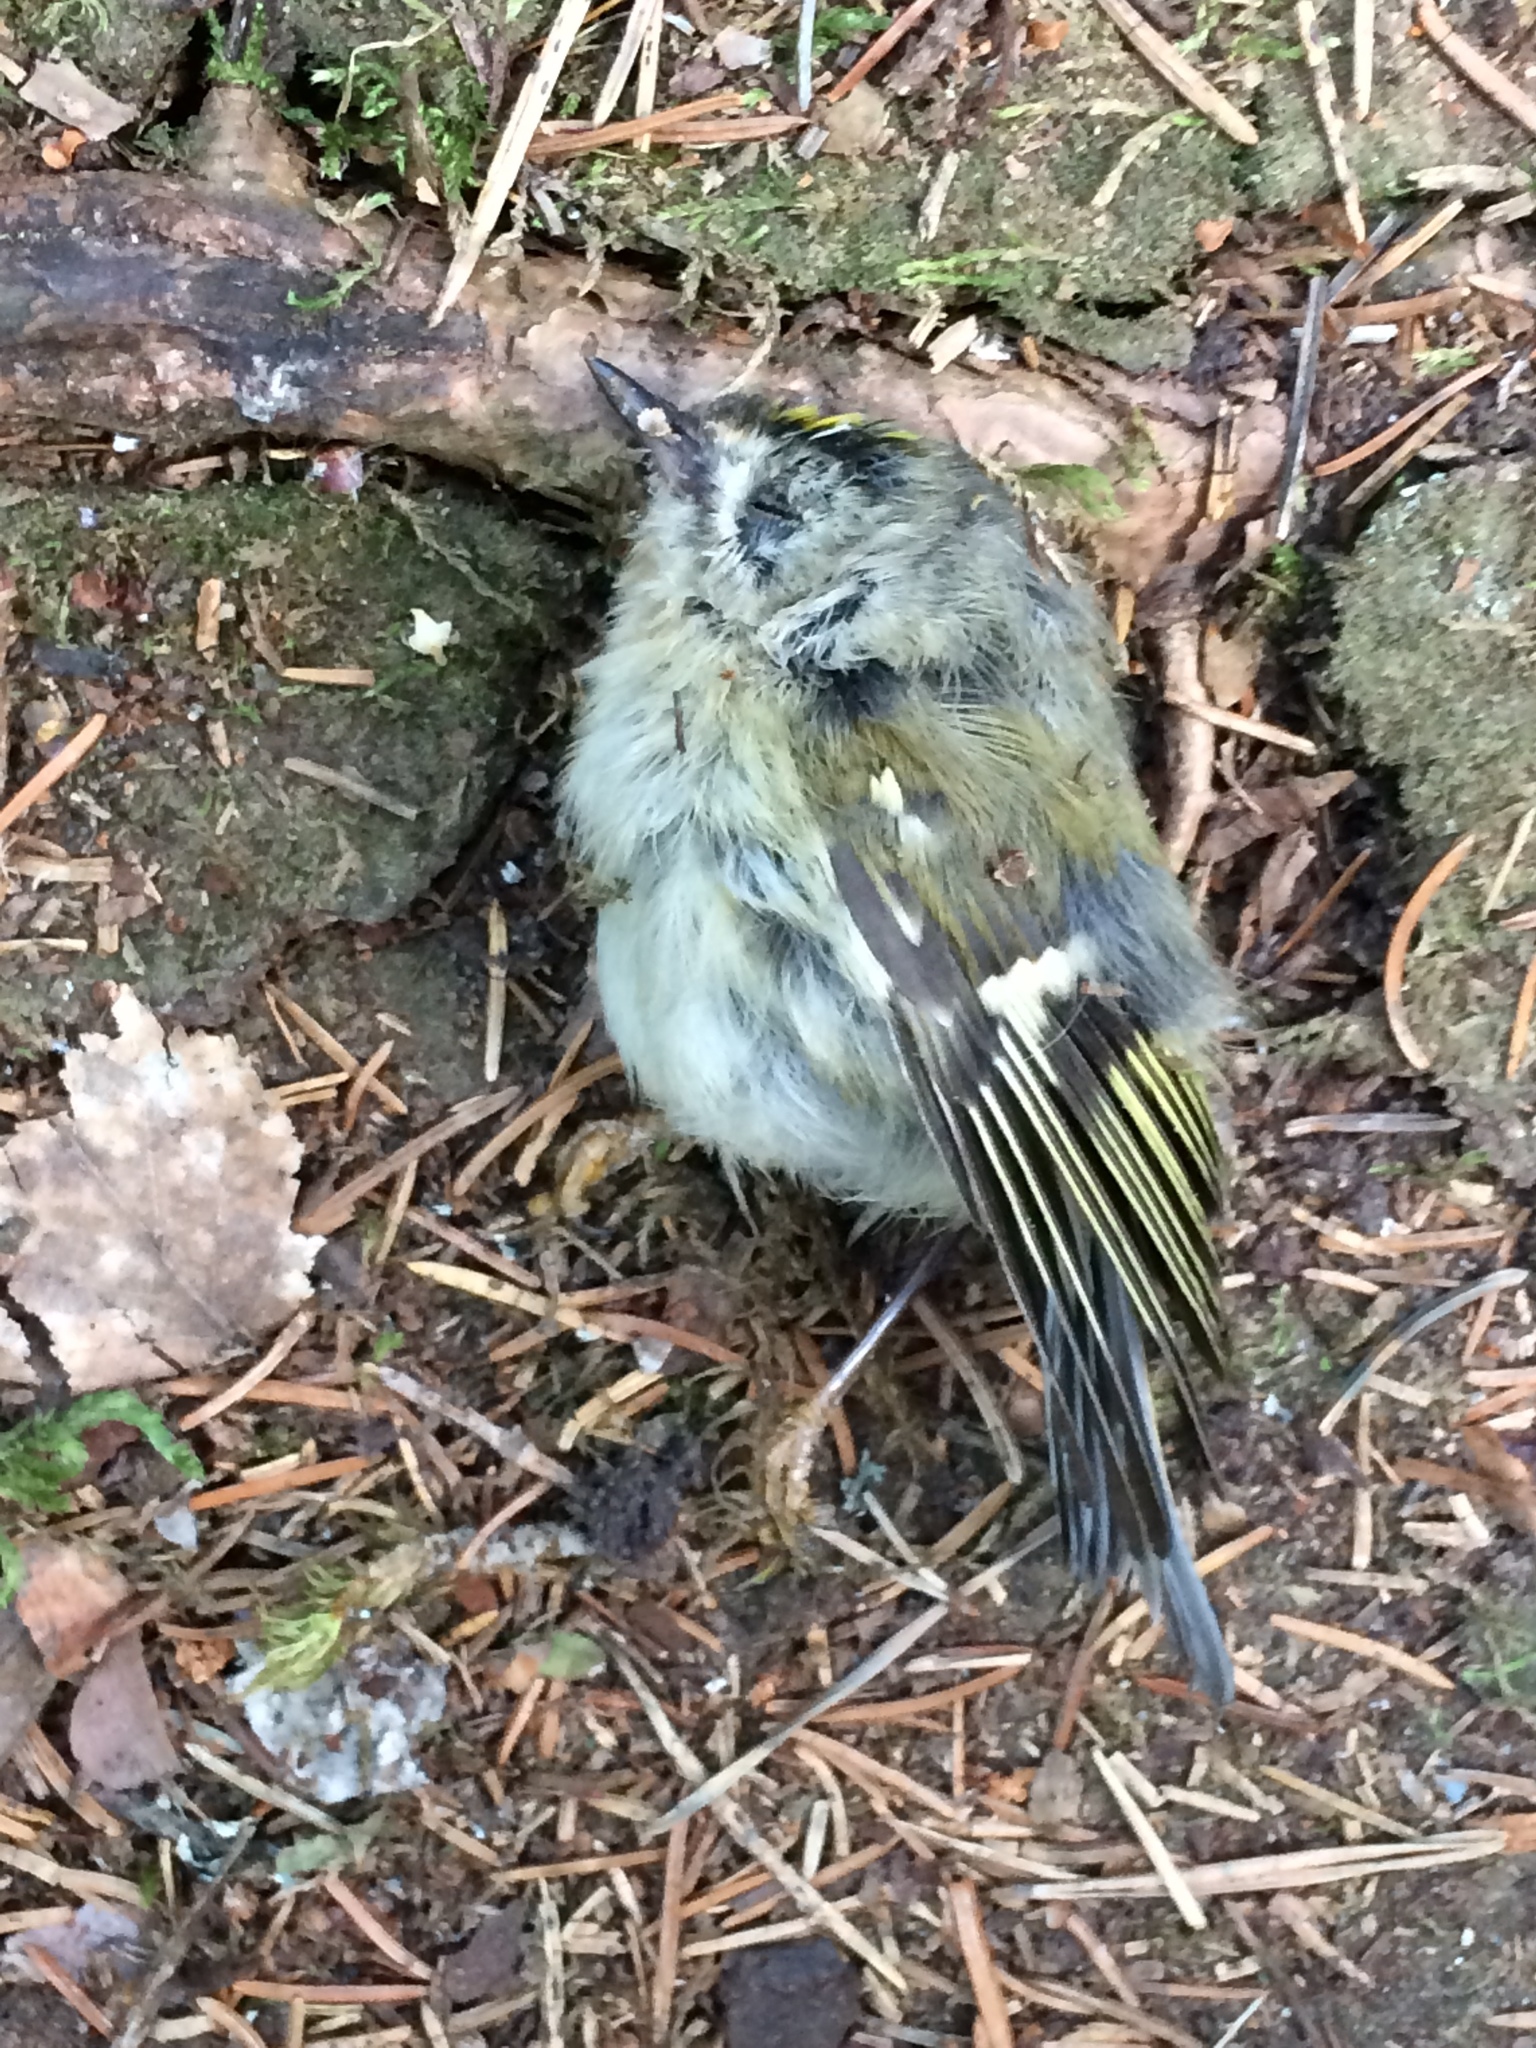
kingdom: Animalia
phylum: Chordata
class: Aves
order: Passeriformes
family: Regulidae
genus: Regulus
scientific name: Regulus regulus
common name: Goldcrest
